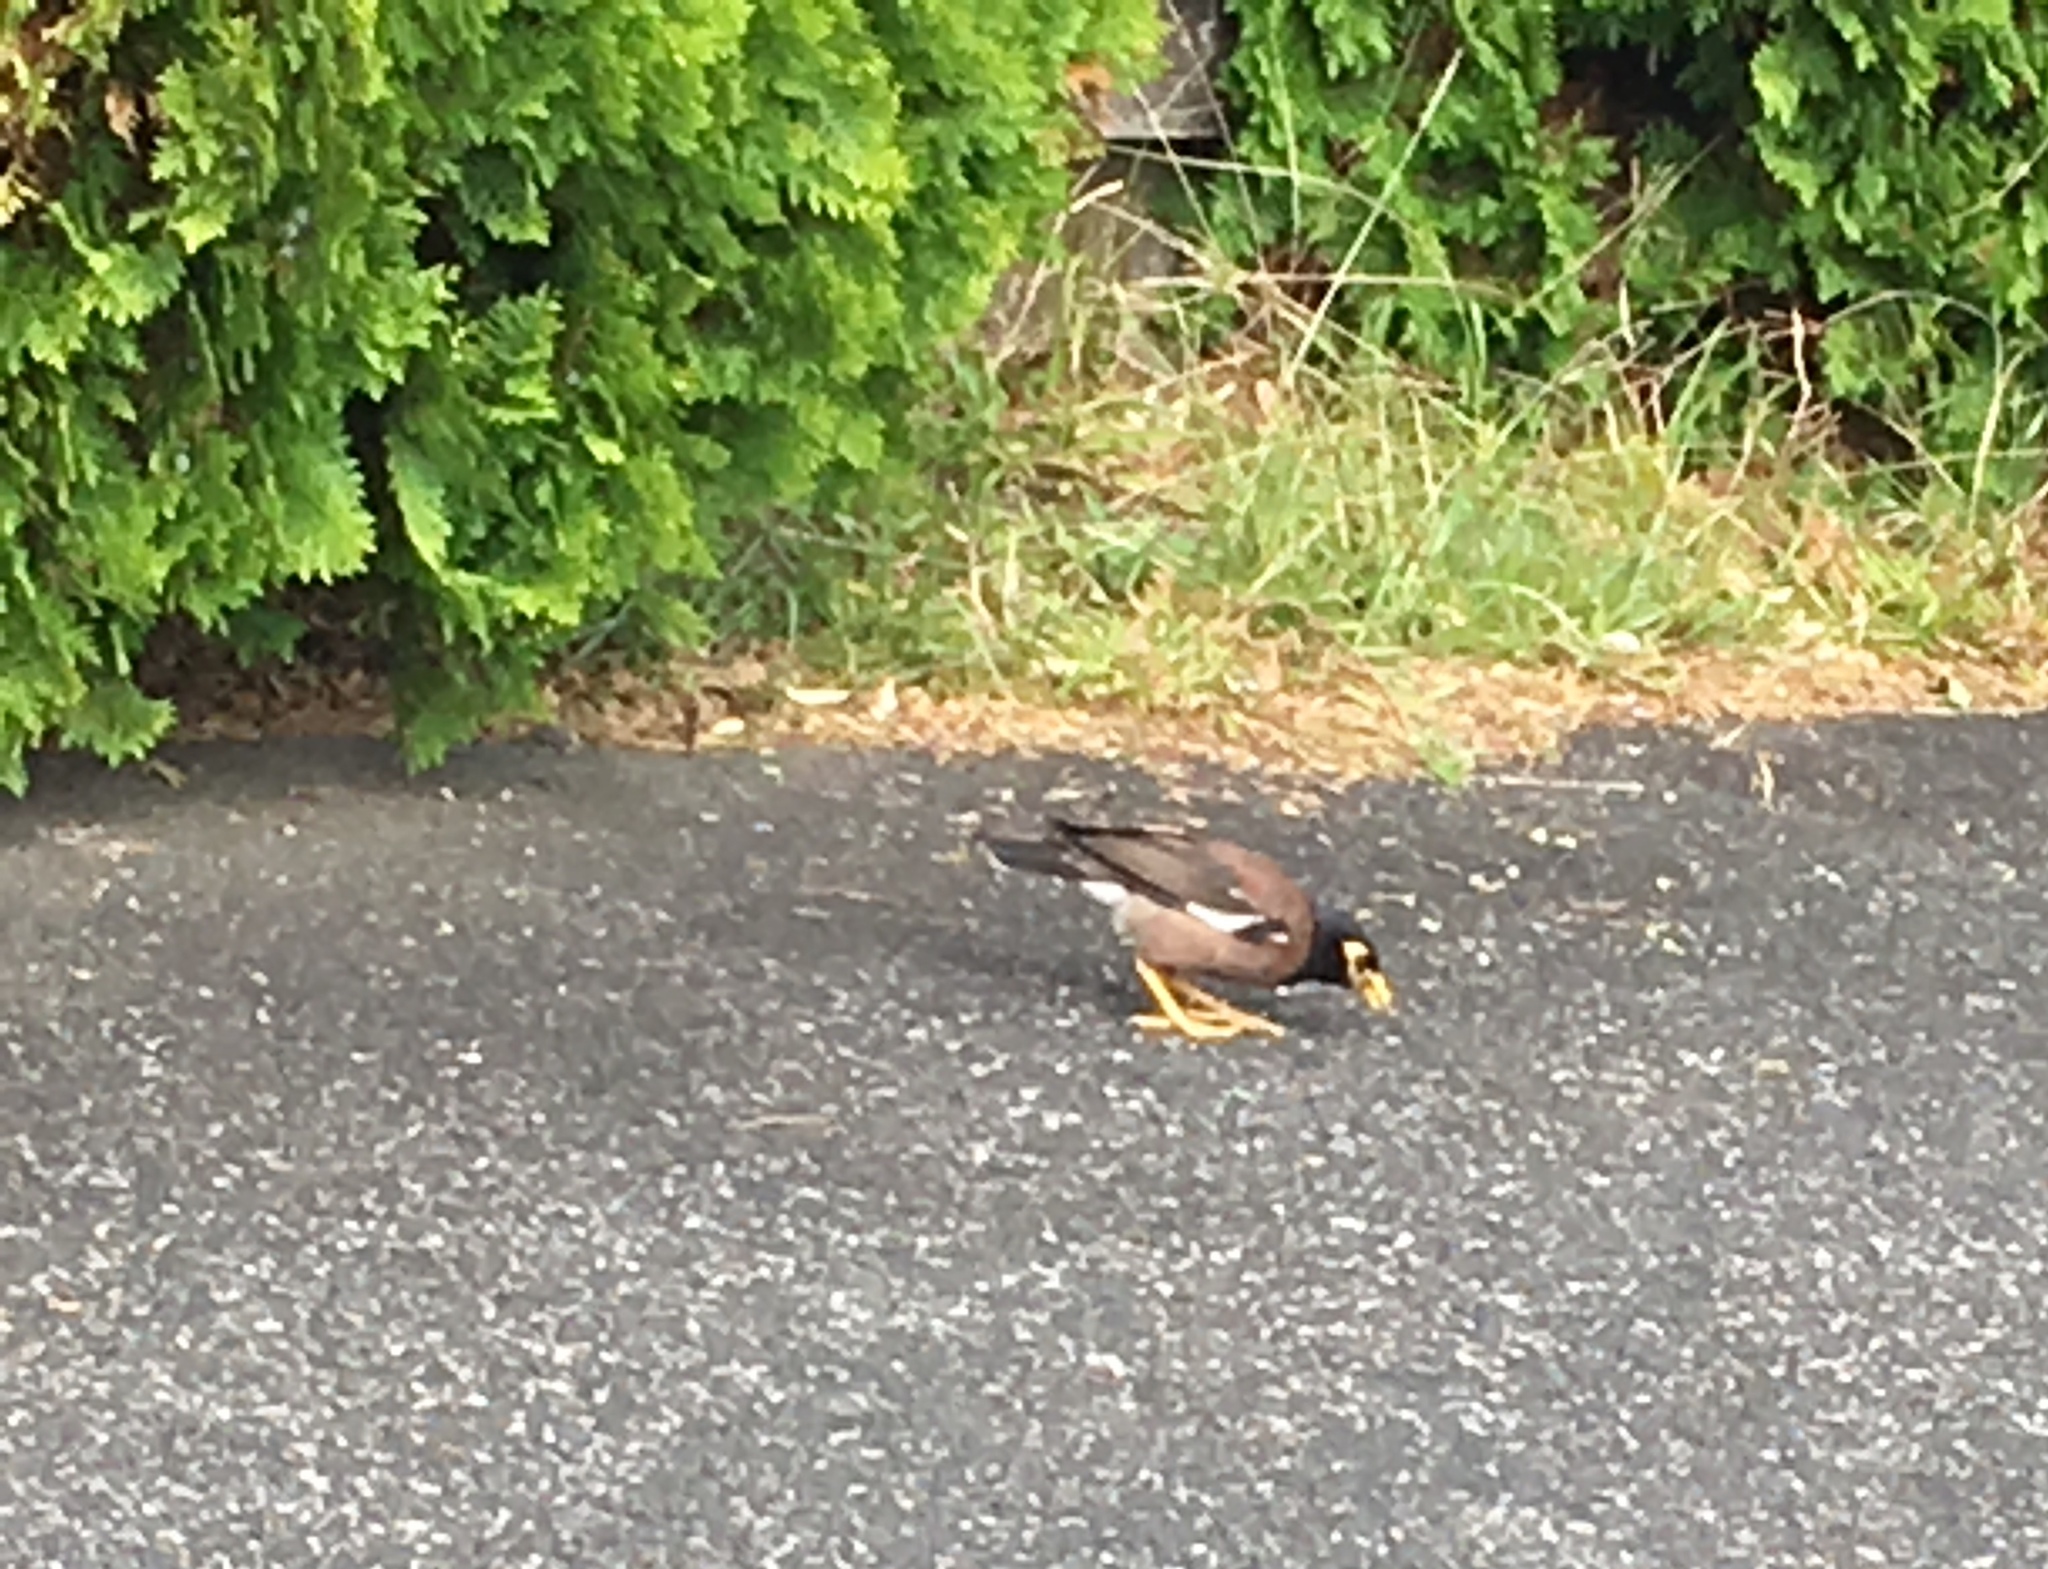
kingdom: Animalia
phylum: Chordata
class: Aves
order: Passeriformes
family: Sturnidae
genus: Acridotheres
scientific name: Acridotheres tristis
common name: Common myna
